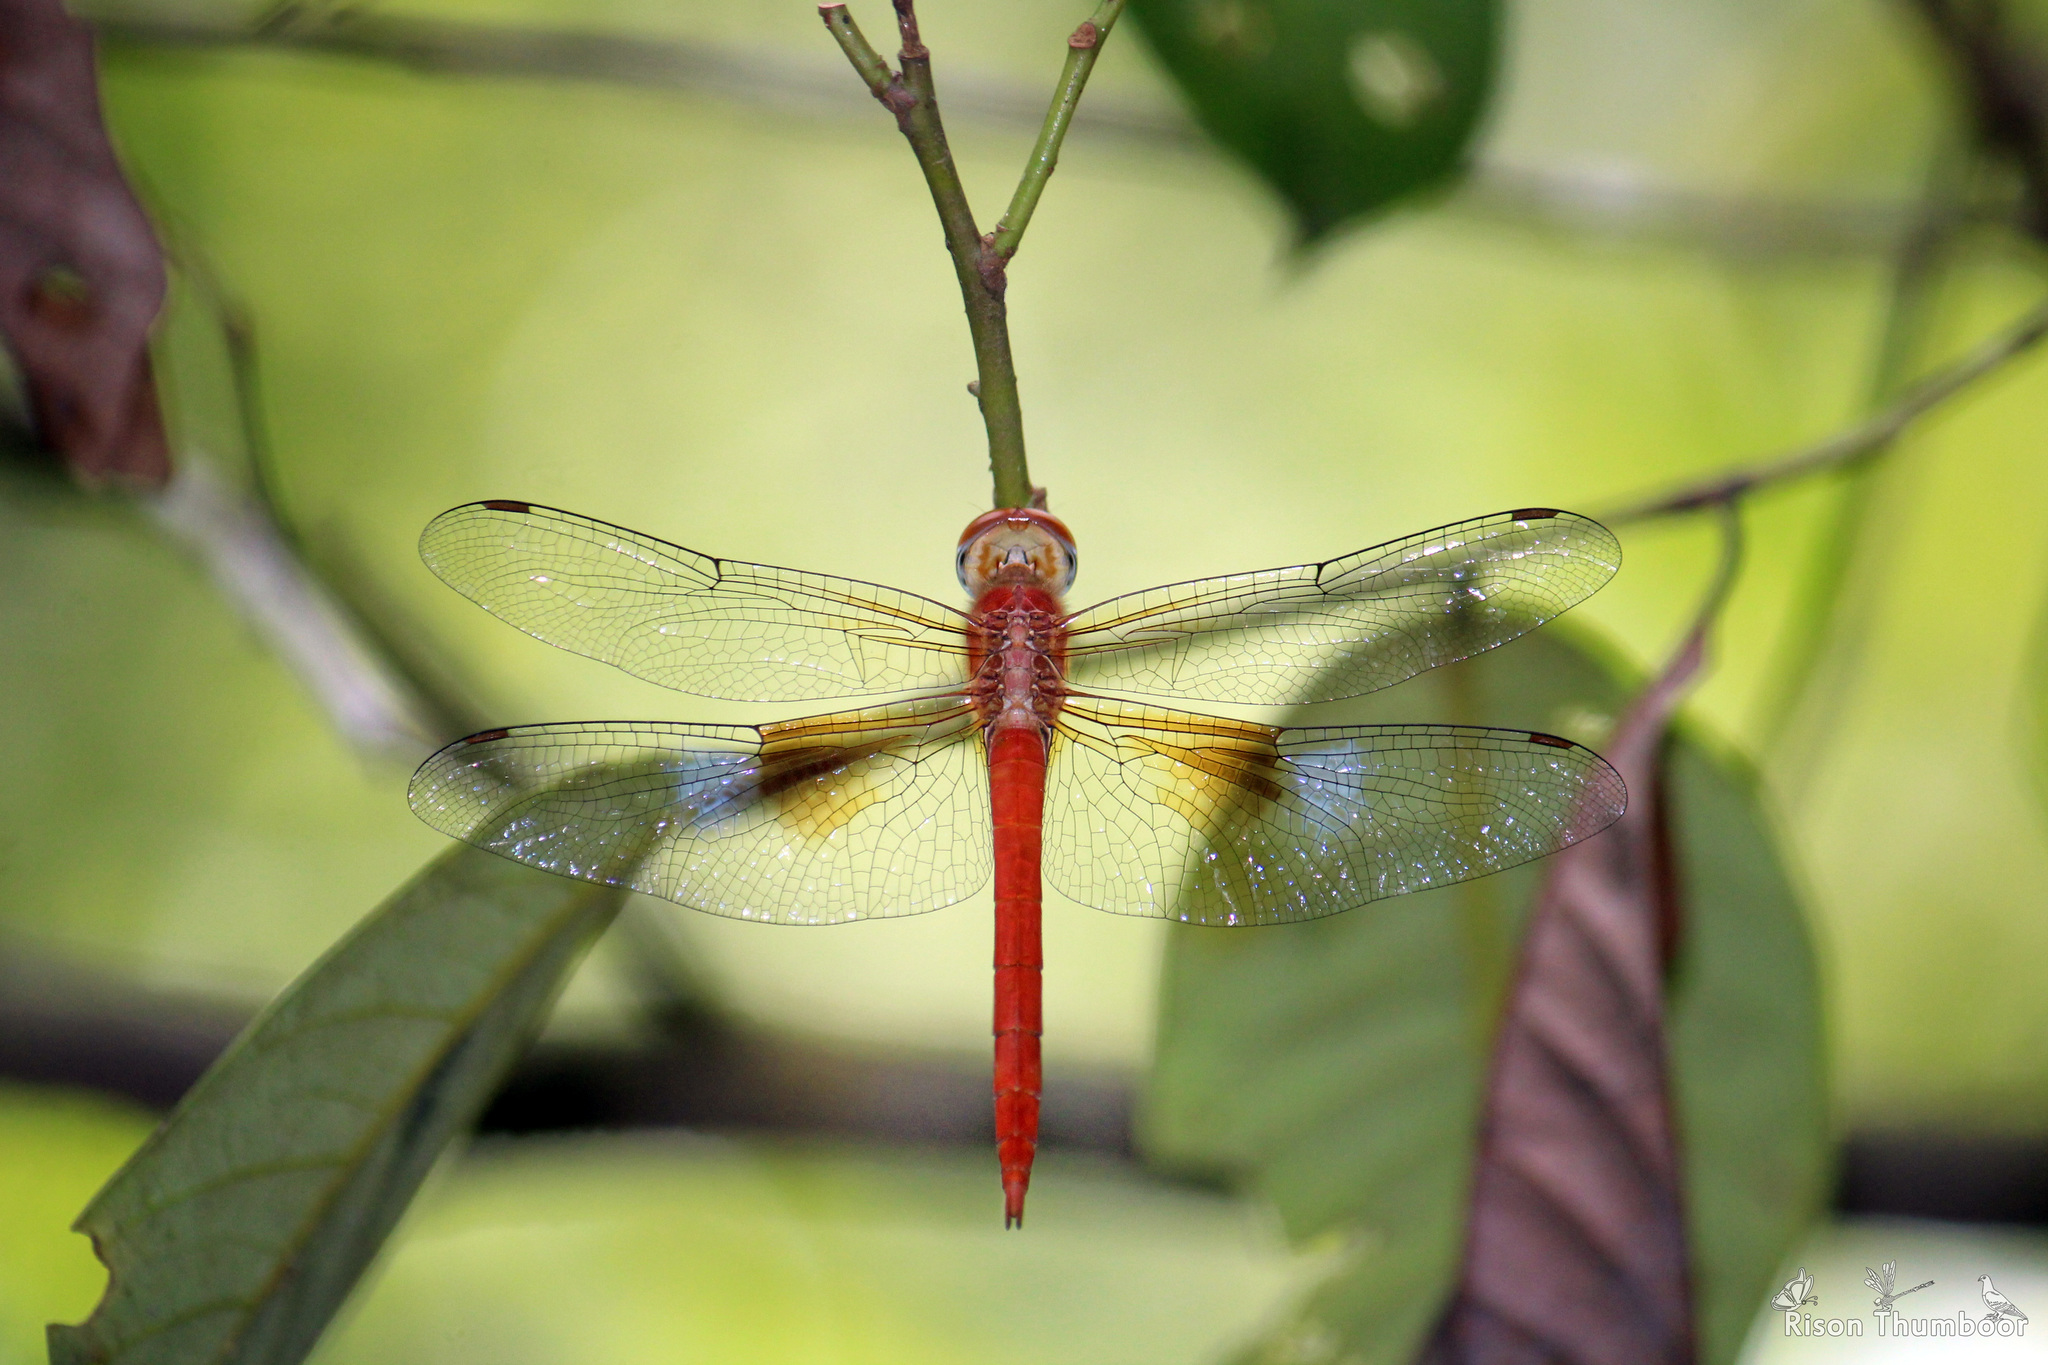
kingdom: Animalia
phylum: Arthropoda
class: Insecta
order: Odonata
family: Libellulidae
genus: Tholymis
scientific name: Tholymis tillarga
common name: Coral-tailed cloud wing
